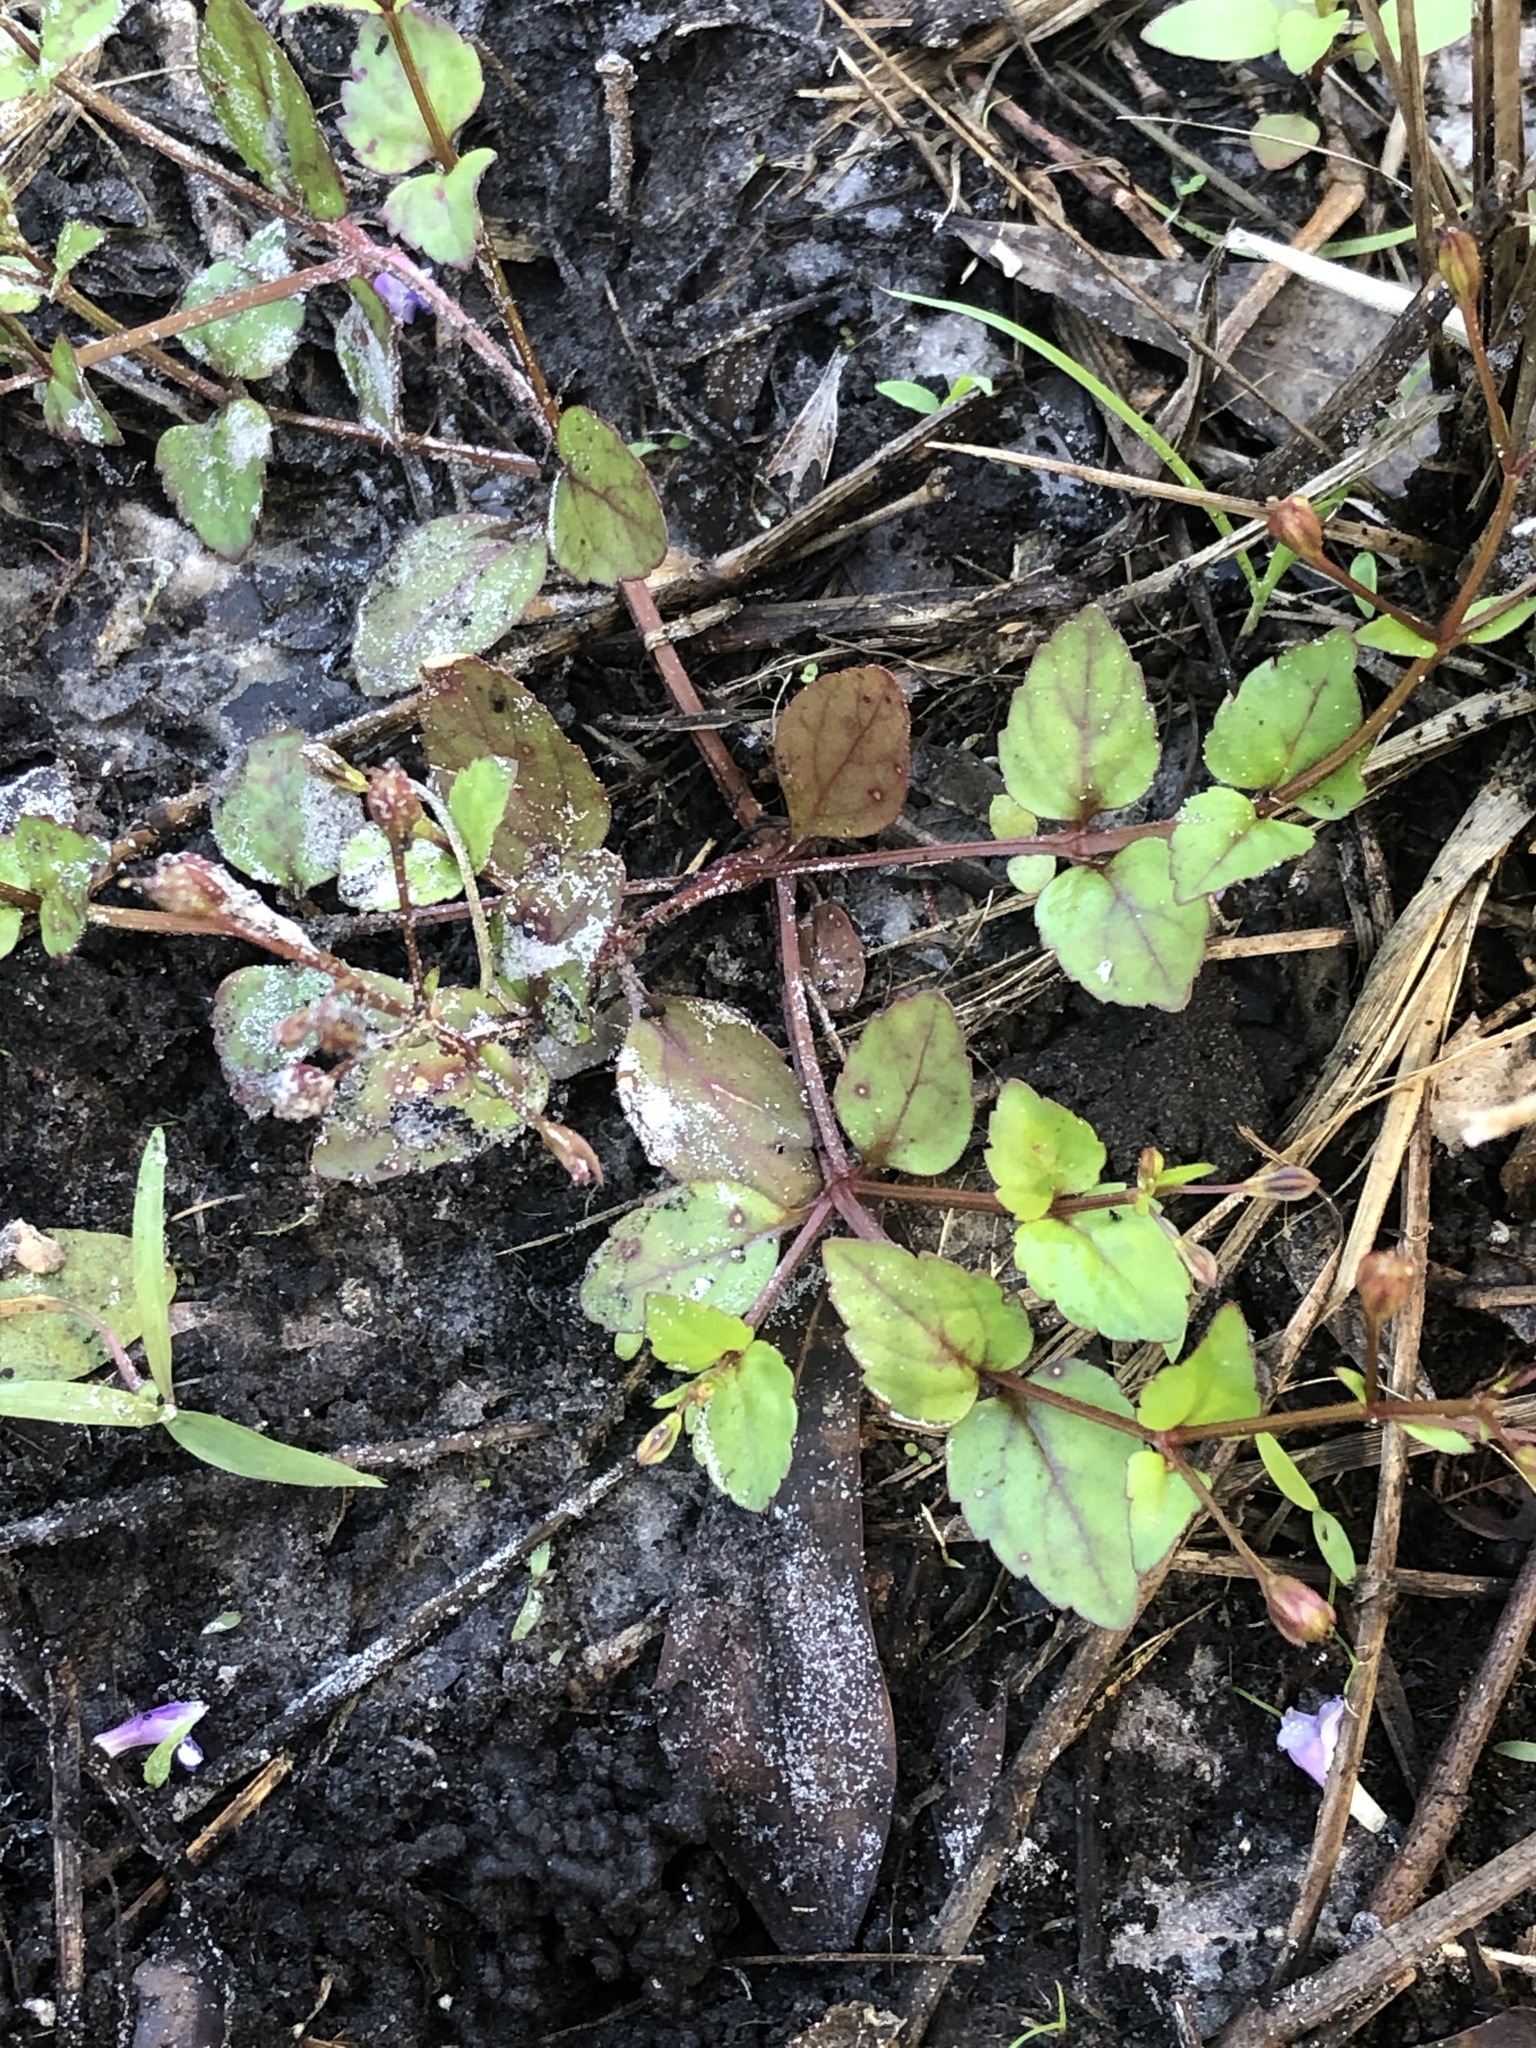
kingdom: Plantae
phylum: Tracheophyta
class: Magnoliopsida
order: Lamiales
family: Linderniaceae
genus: Torenia
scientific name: Torenia crustacea
